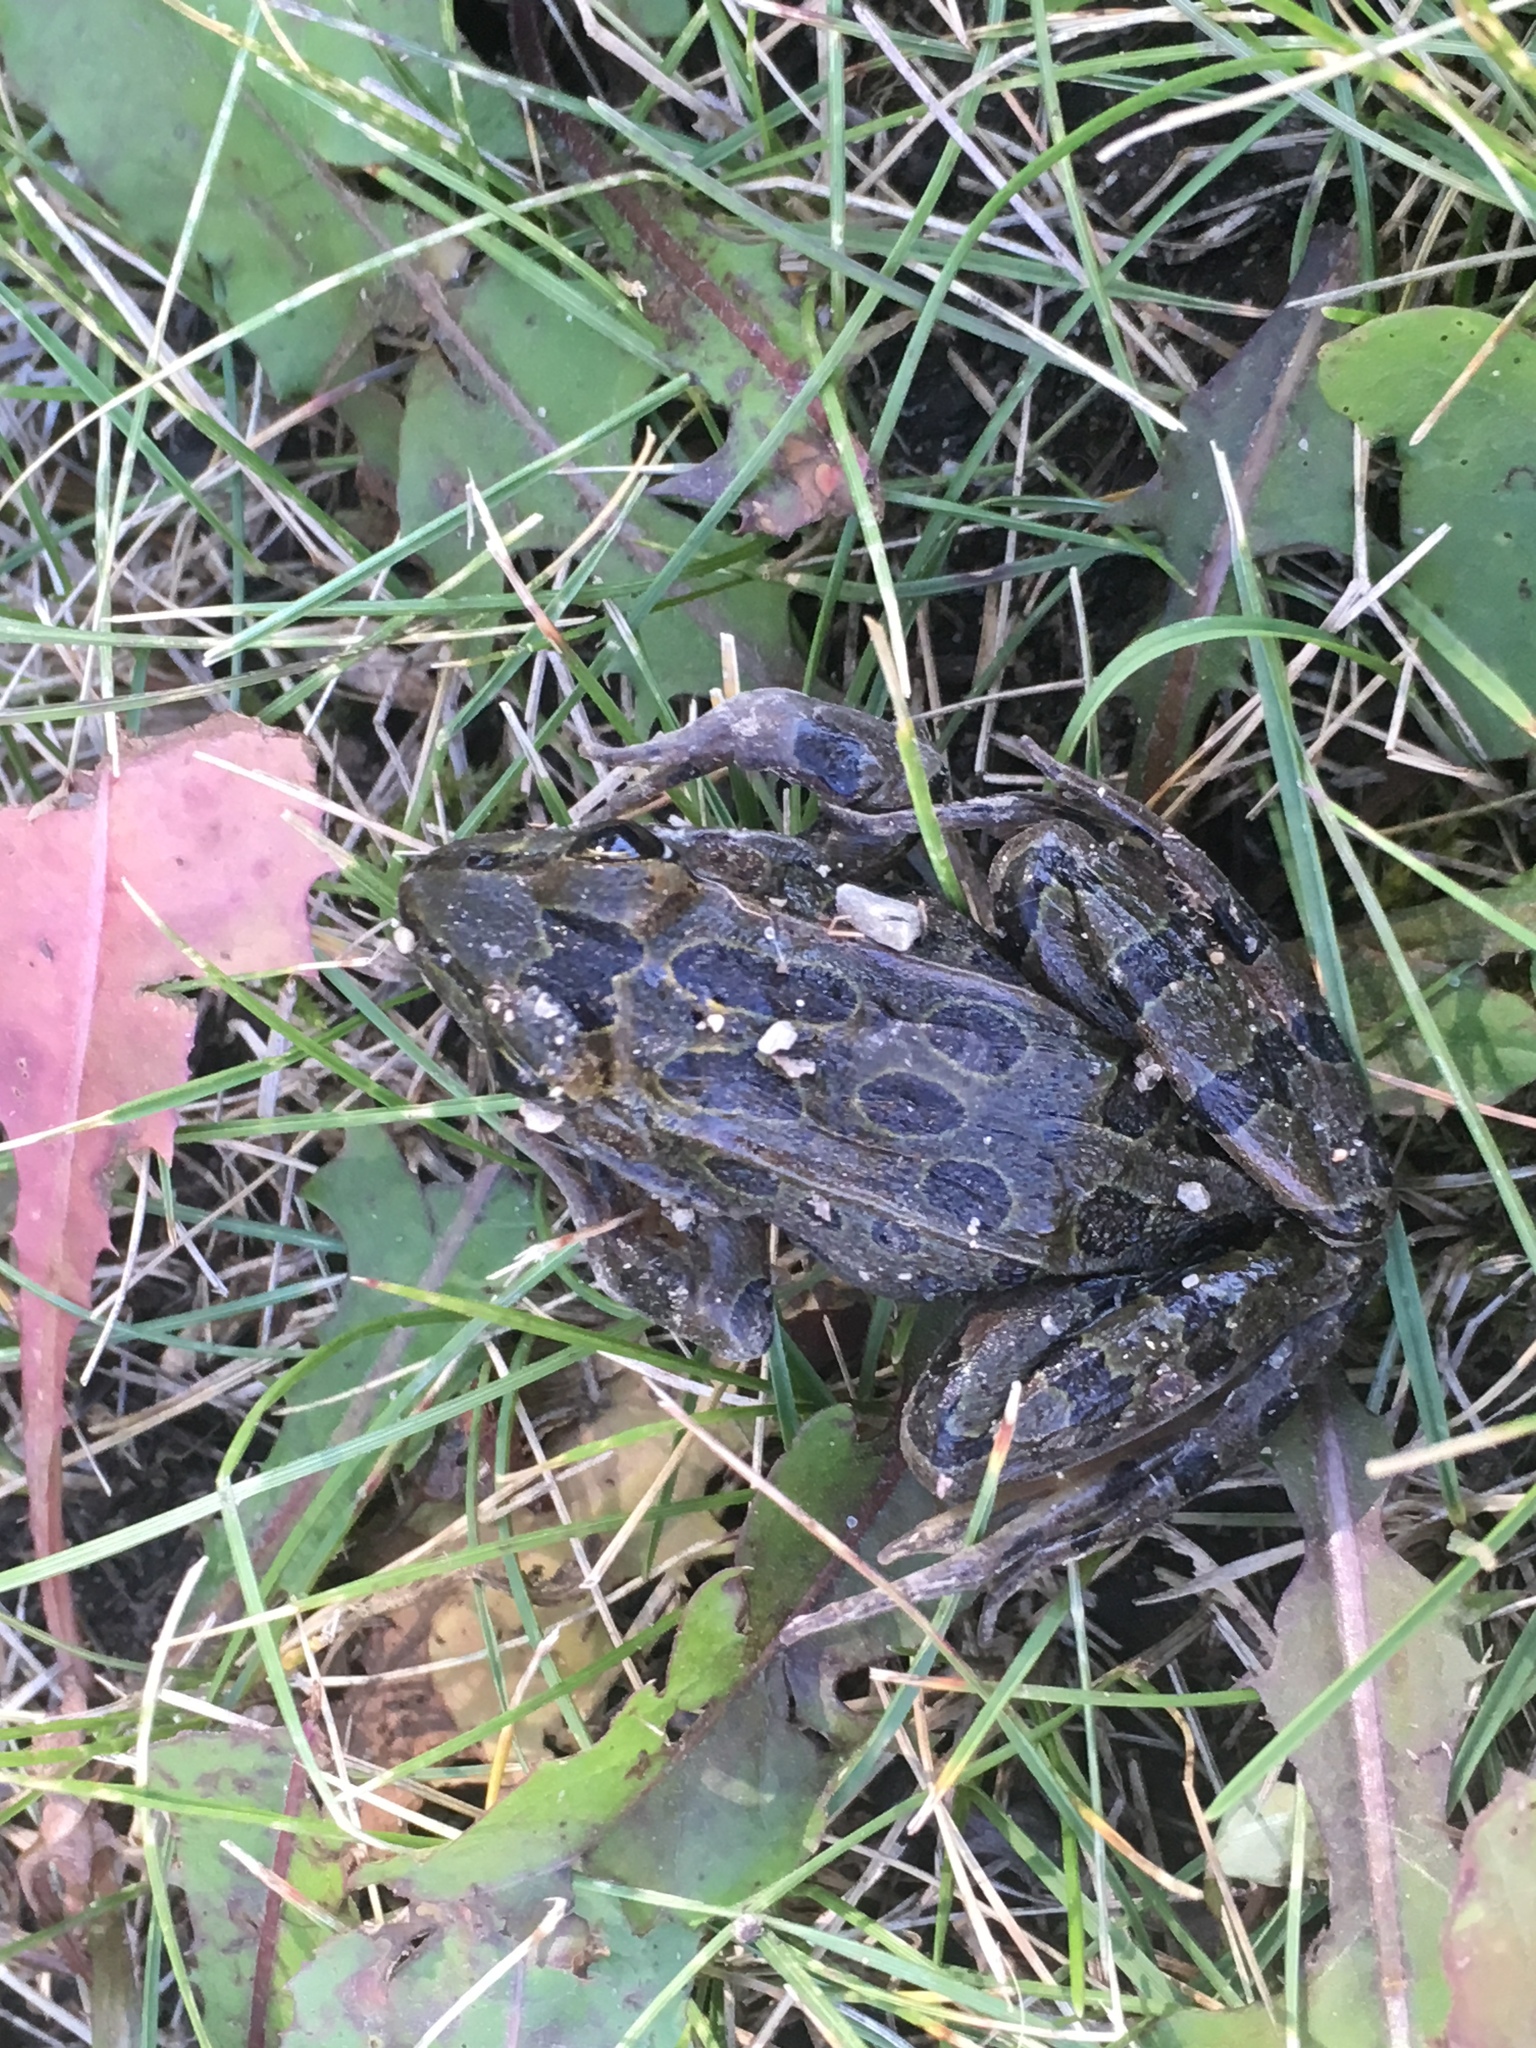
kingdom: Animalia
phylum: Chordata
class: Amphibia
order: Anura
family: Ranidae
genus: Lithobates
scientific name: Lithobates pipiens
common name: Northern leopard frog
